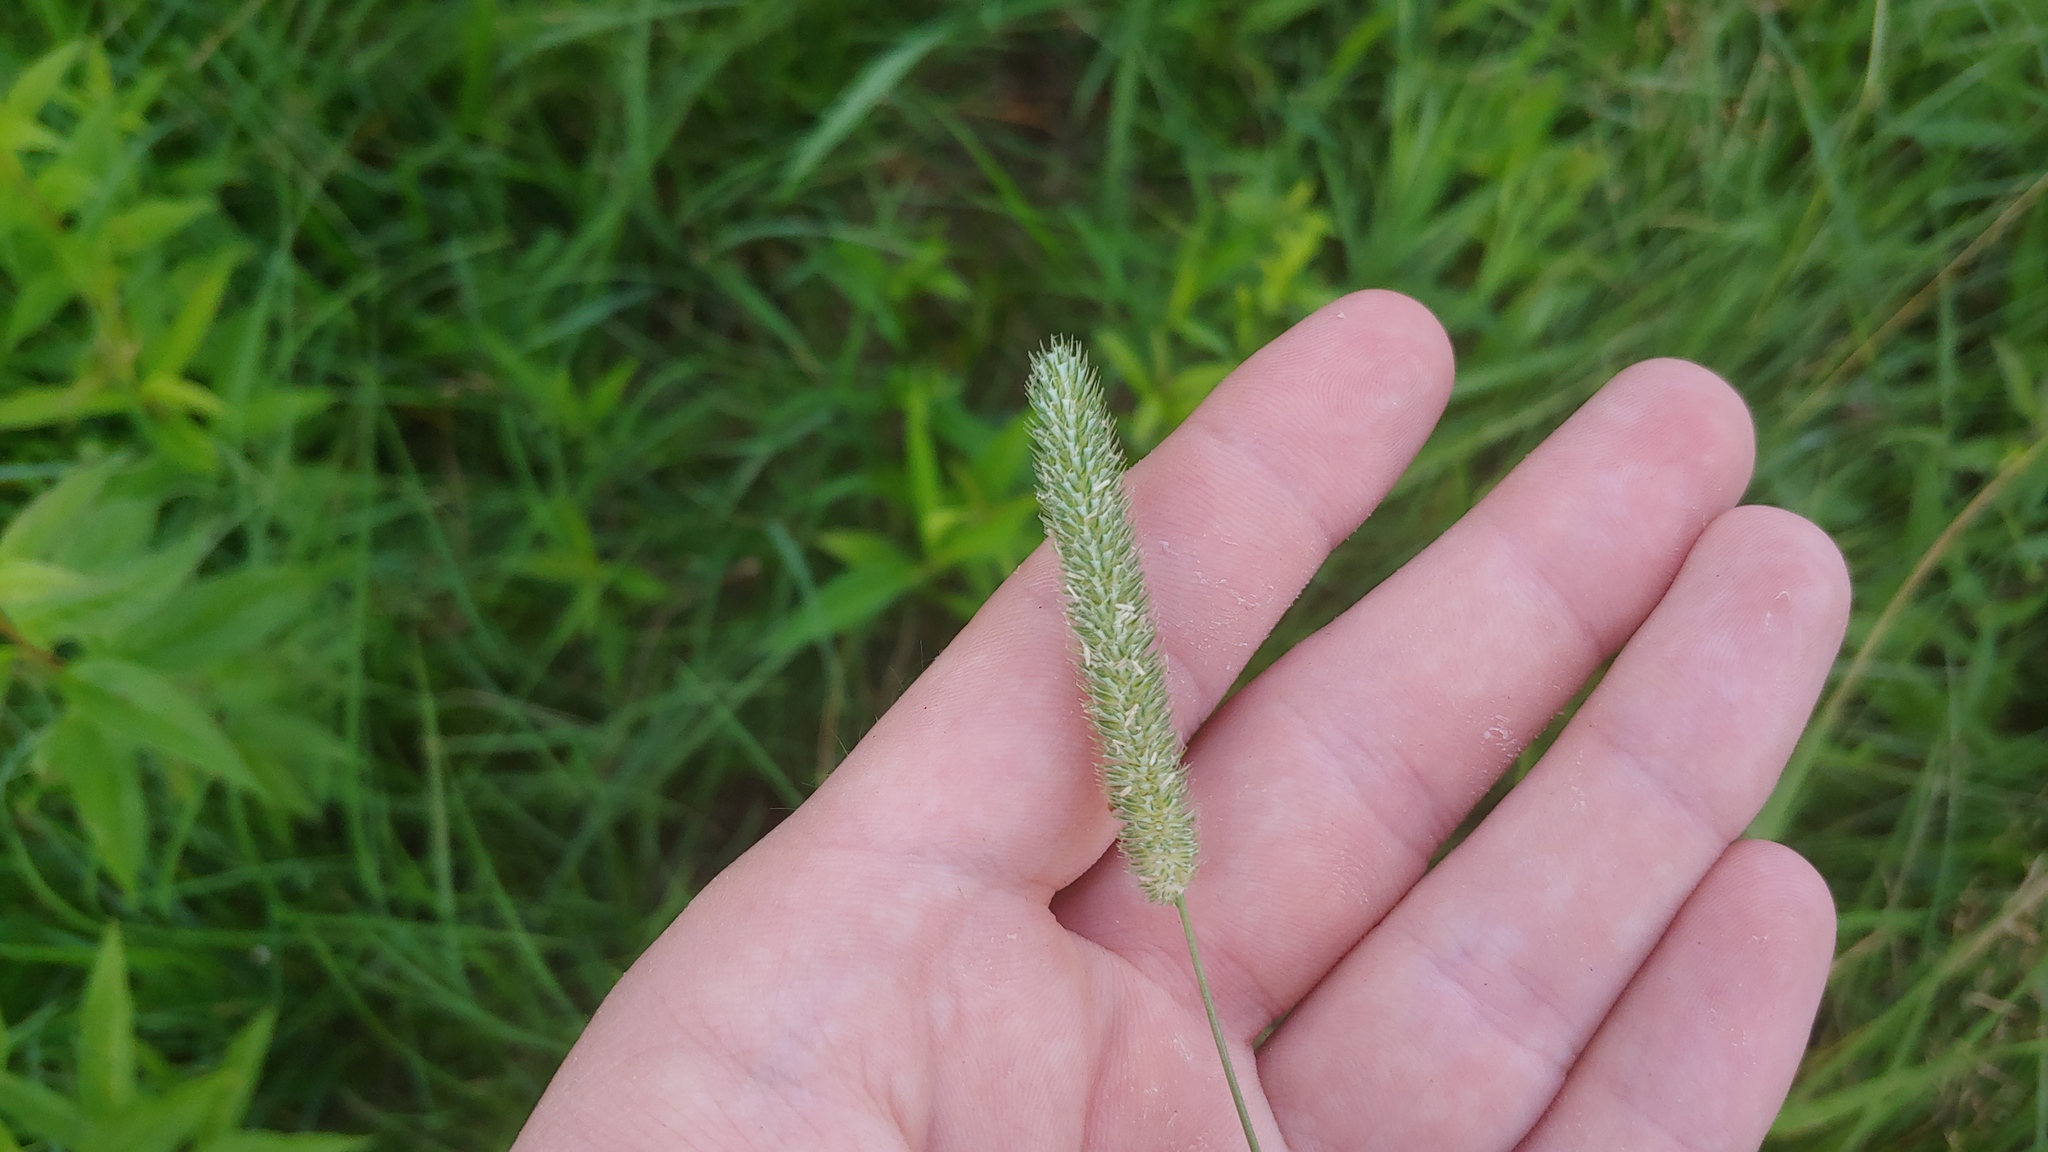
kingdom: Plantae
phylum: Tracheophyta
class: Liliopsida
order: Poales
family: Poaceae
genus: Phleum
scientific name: Phleum pratense
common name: Timothy grass
